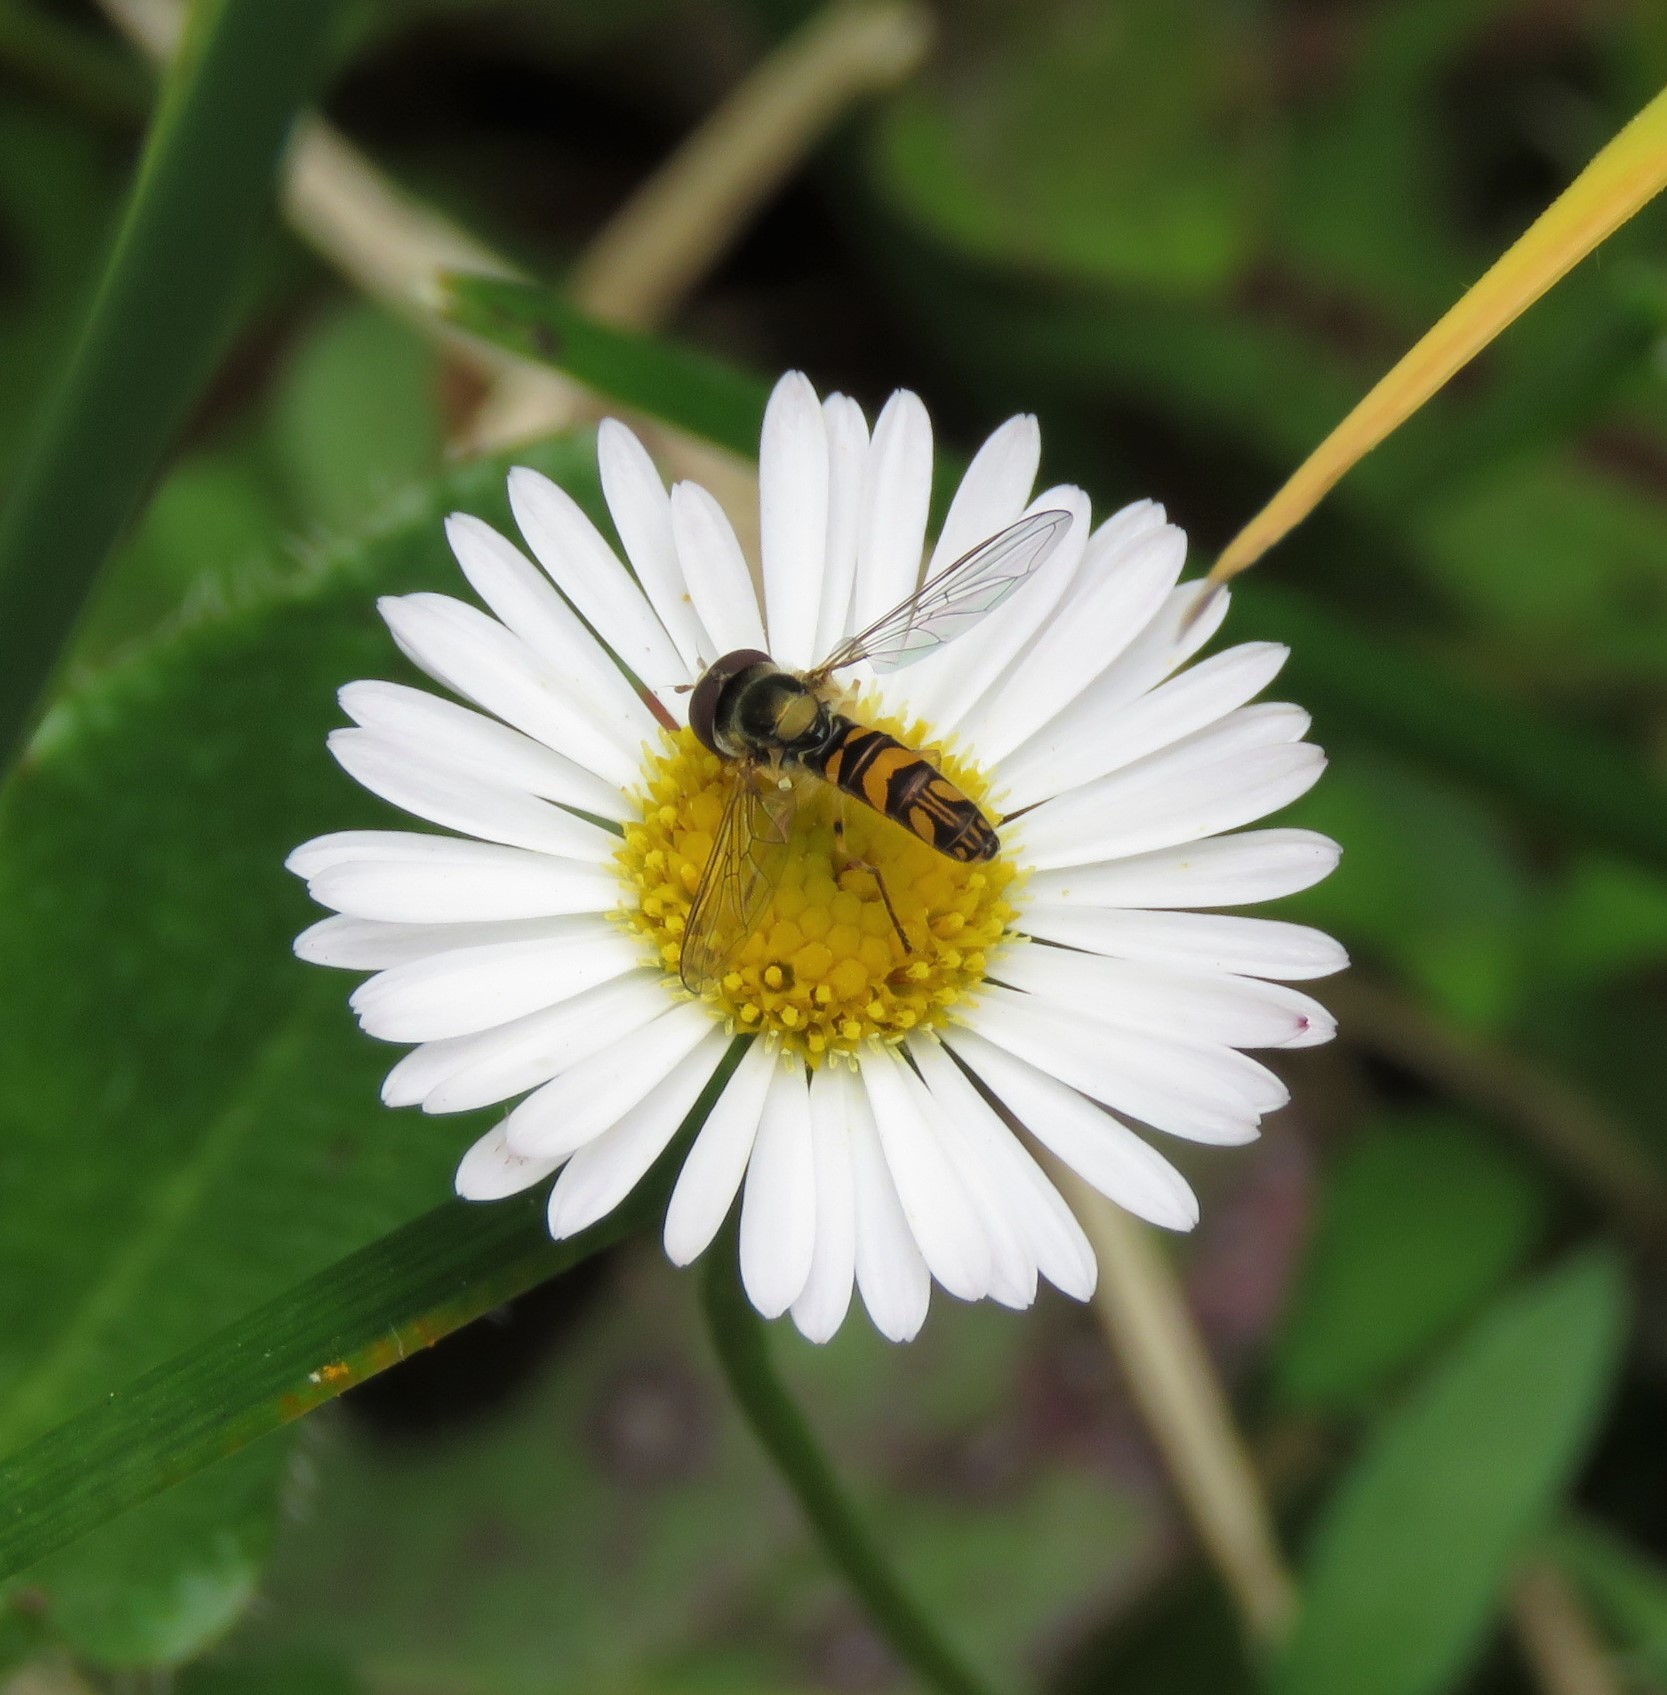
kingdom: Plantae
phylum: Tracheophyta
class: Magnoliopsida
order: Asterales
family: Asteraceae
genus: Erigeron
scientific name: Erigeron karvinskianus
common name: Mexican fleabane
